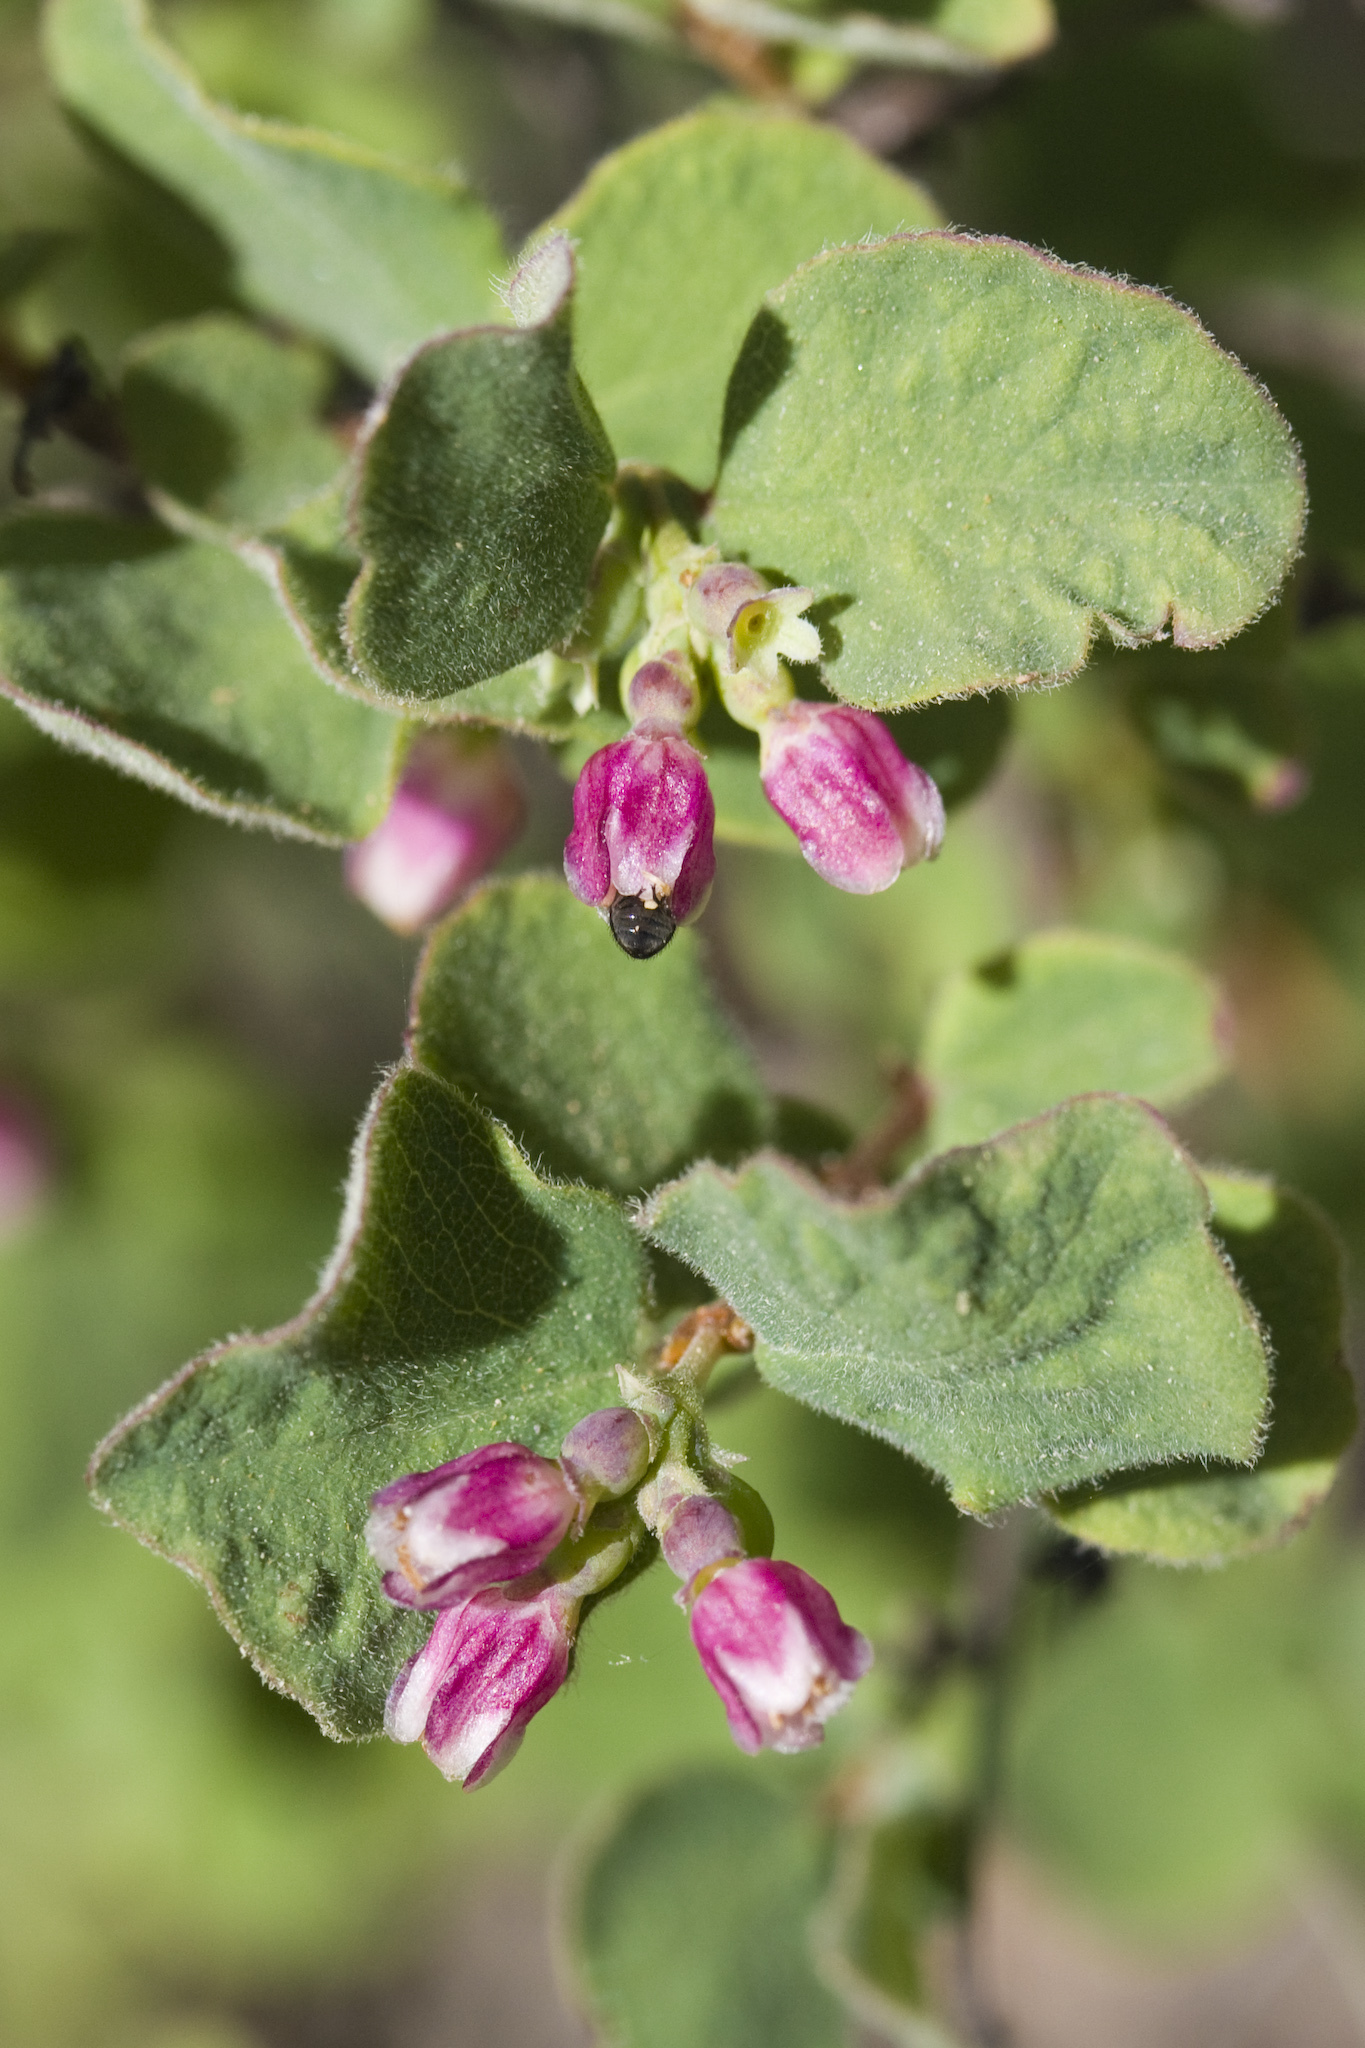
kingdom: Plantae
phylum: Tracheophyta
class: Magnoliopsida
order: Dipsacales
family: Caprifoliaceae
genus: Symphoricarpos
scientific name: Symphoricarpos mollis
